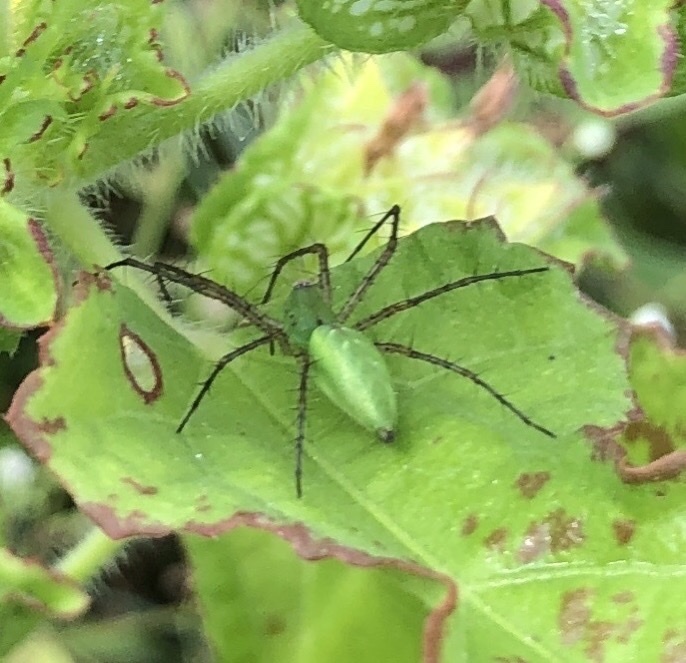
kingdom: Animalia
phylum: Arthropoda
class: Arachnida
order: Araneae
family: Oxyopidae
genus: Peucetia
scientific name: Peucetia viridans
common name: Lynx spiders
